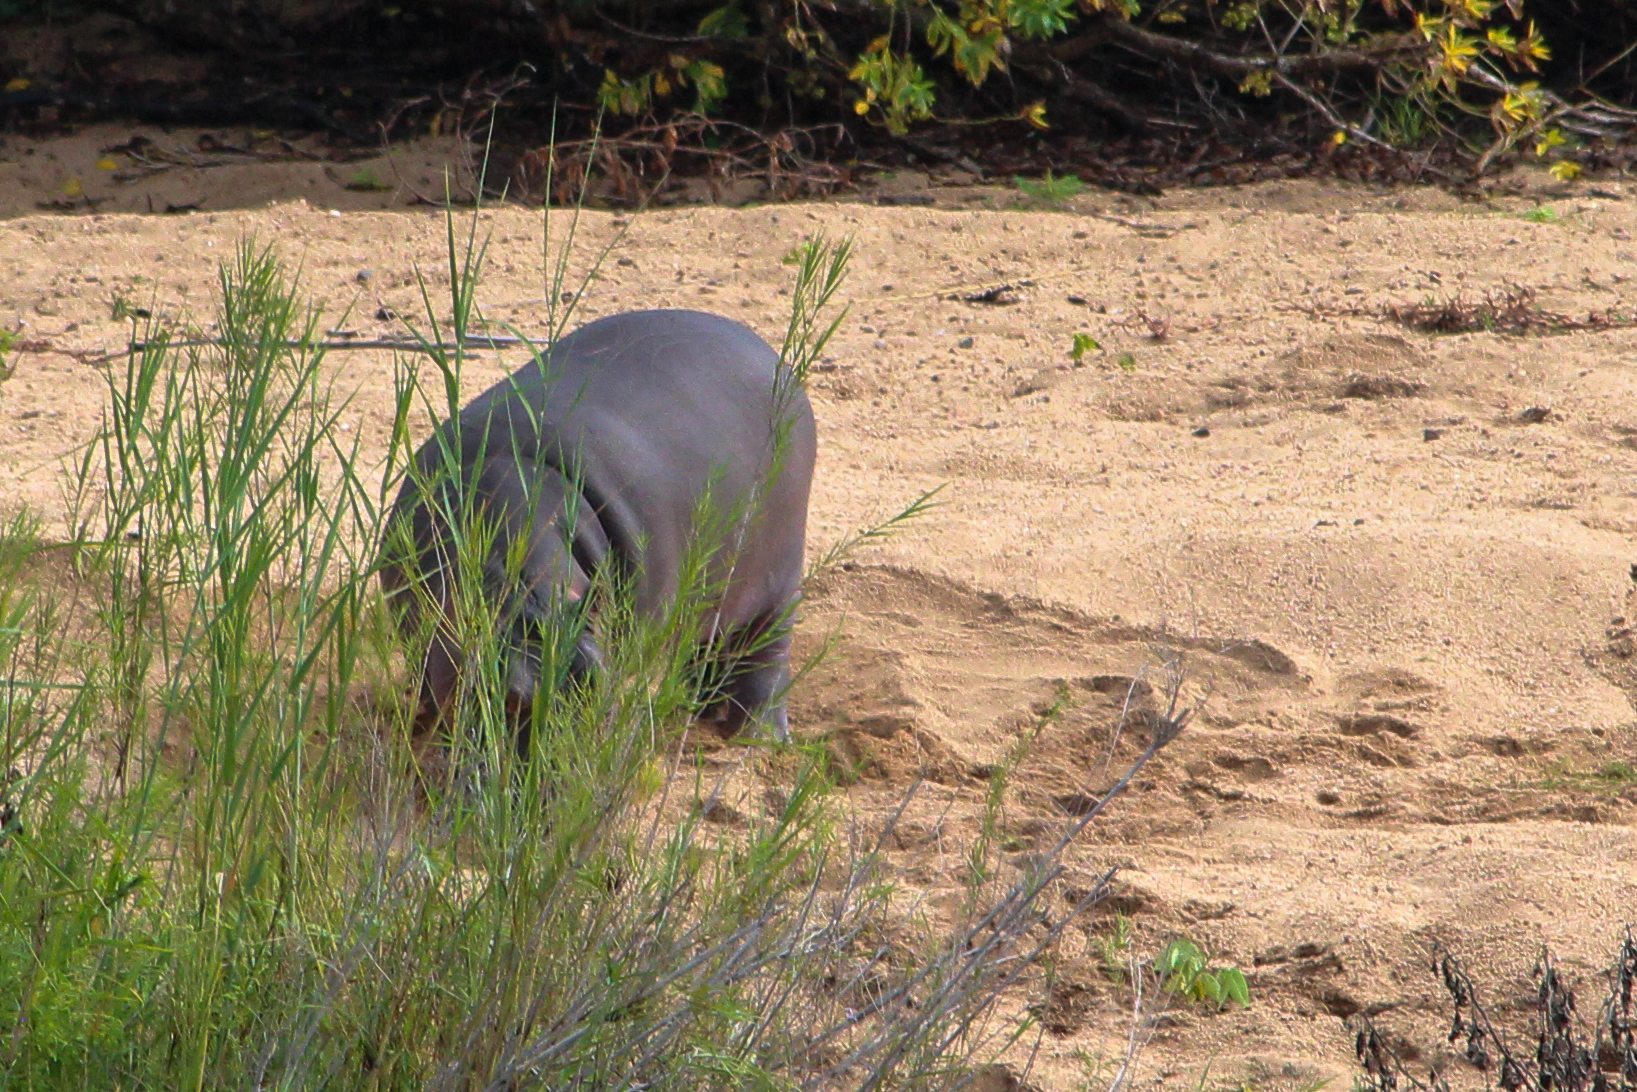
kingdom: Animalia
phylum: Chordata
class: Mammalia
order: Artiodactyla
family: Hippopotamidae
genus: Hippopotamus
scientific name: Hippopotamus amphibius
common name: Common hippopotamus
